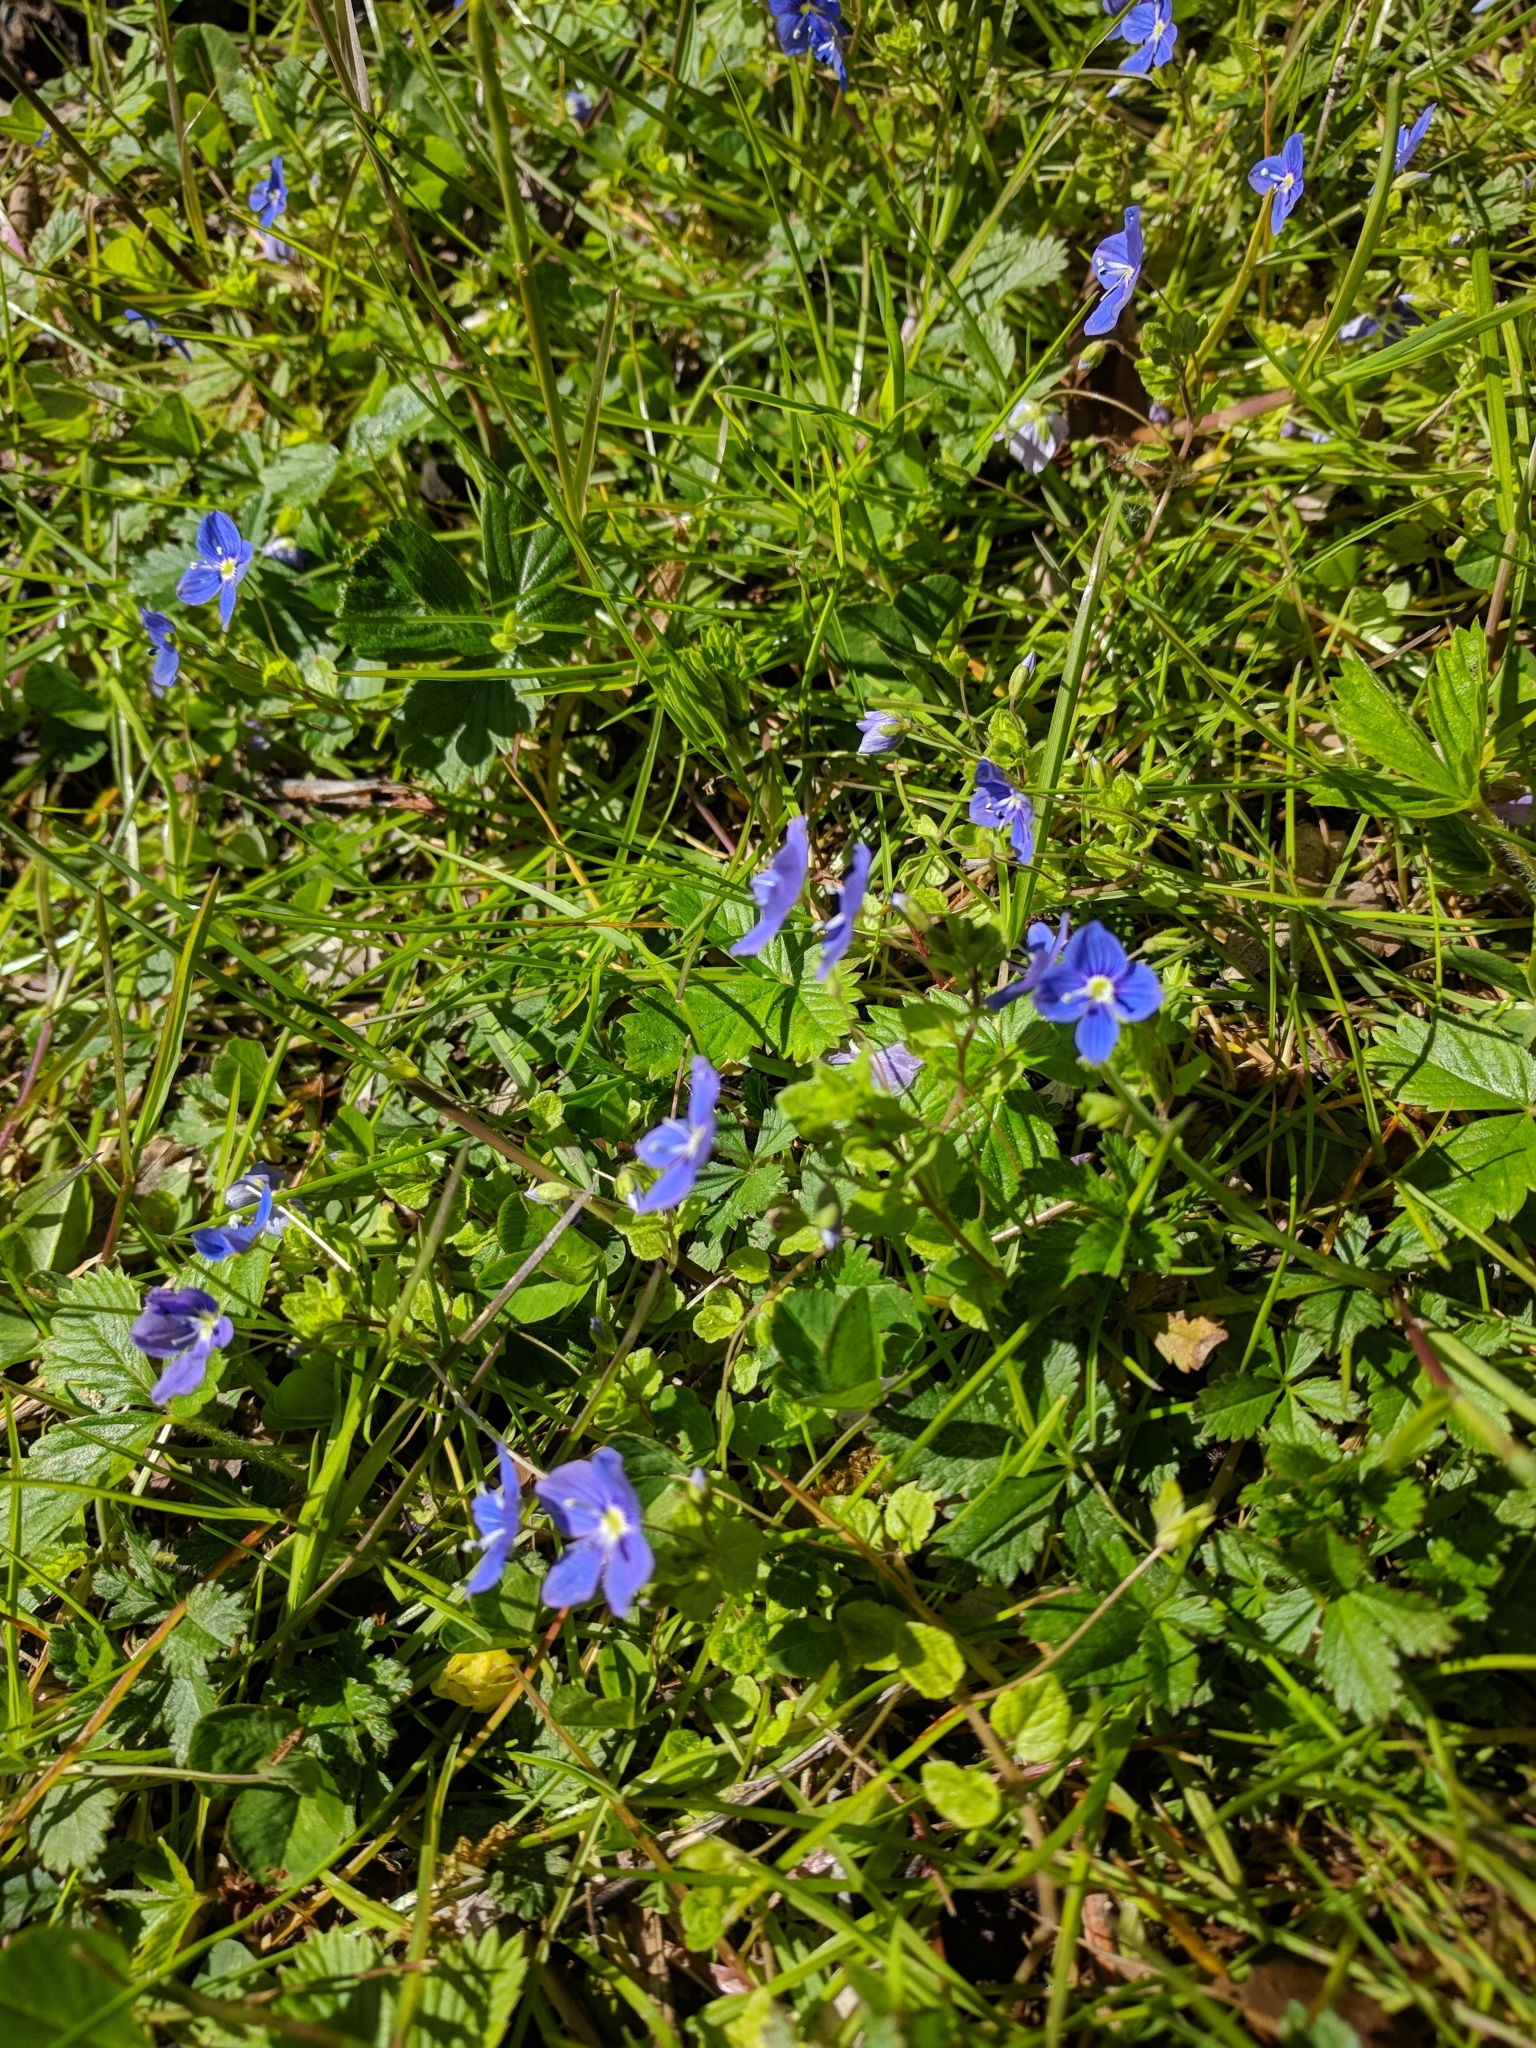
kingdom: Plantae
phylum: Tracheophyta
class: Magnoliopsida
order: Lamiales
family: Plantaginaceae
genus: Veronica
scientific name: Veronica chamaedrys
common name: Germander speedwell
